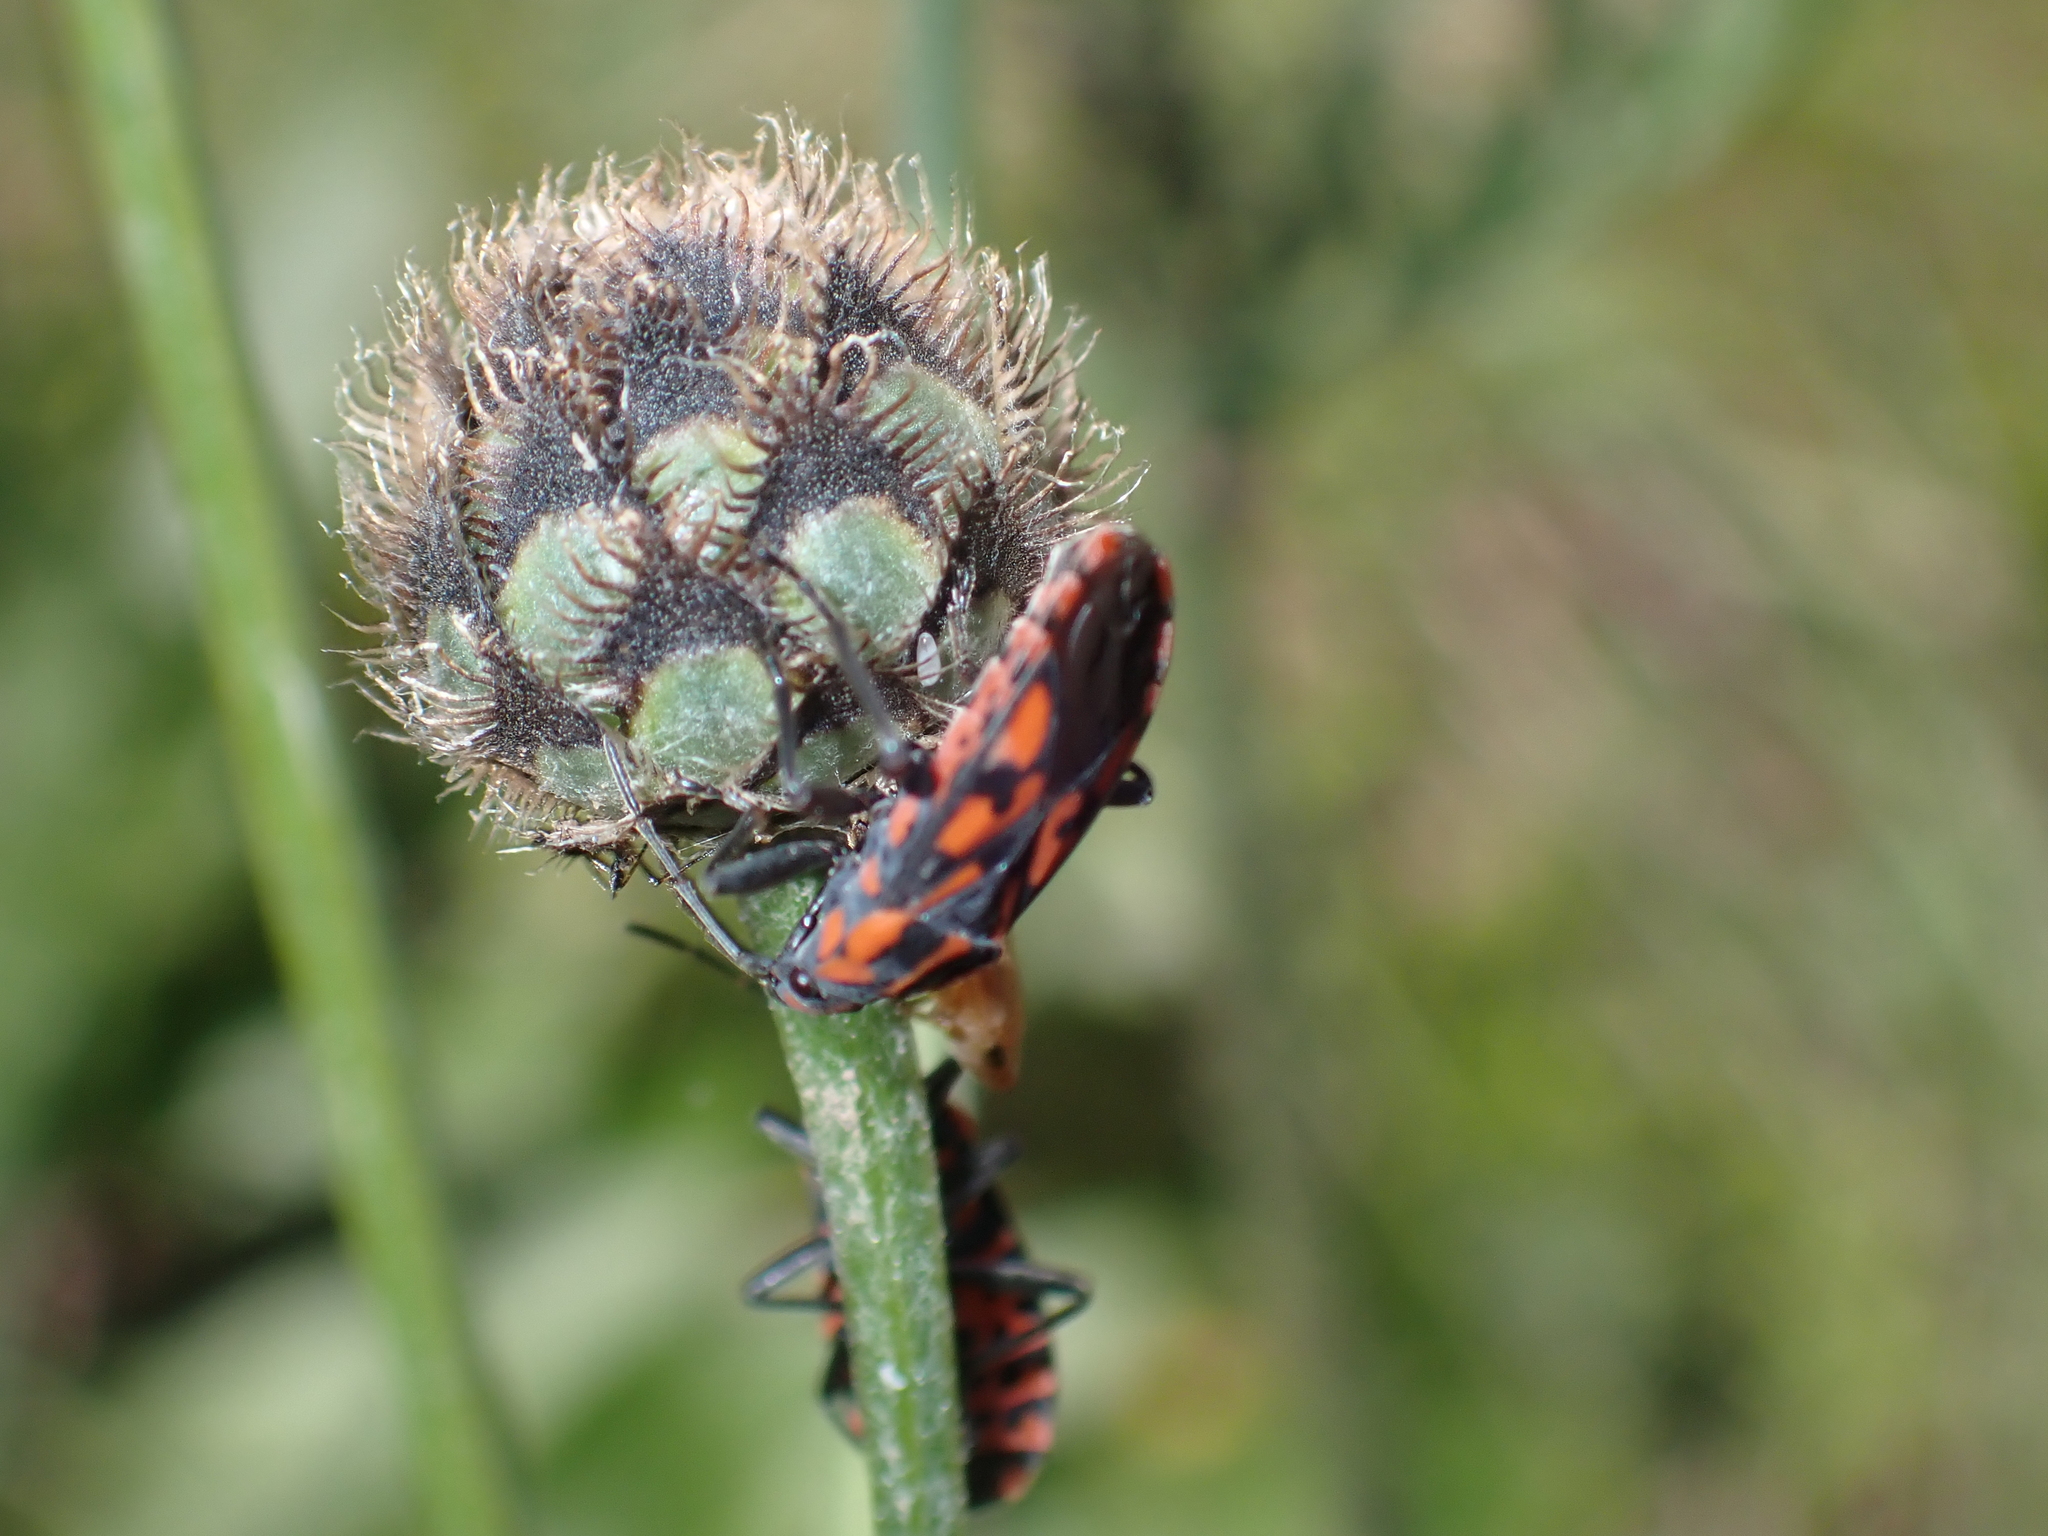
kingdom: Animalia
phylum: Arthropoda
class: Insecta
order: Hemiptera
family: Lygaeidae
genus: Spilostethus
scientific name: Spilostethus saxatilis
